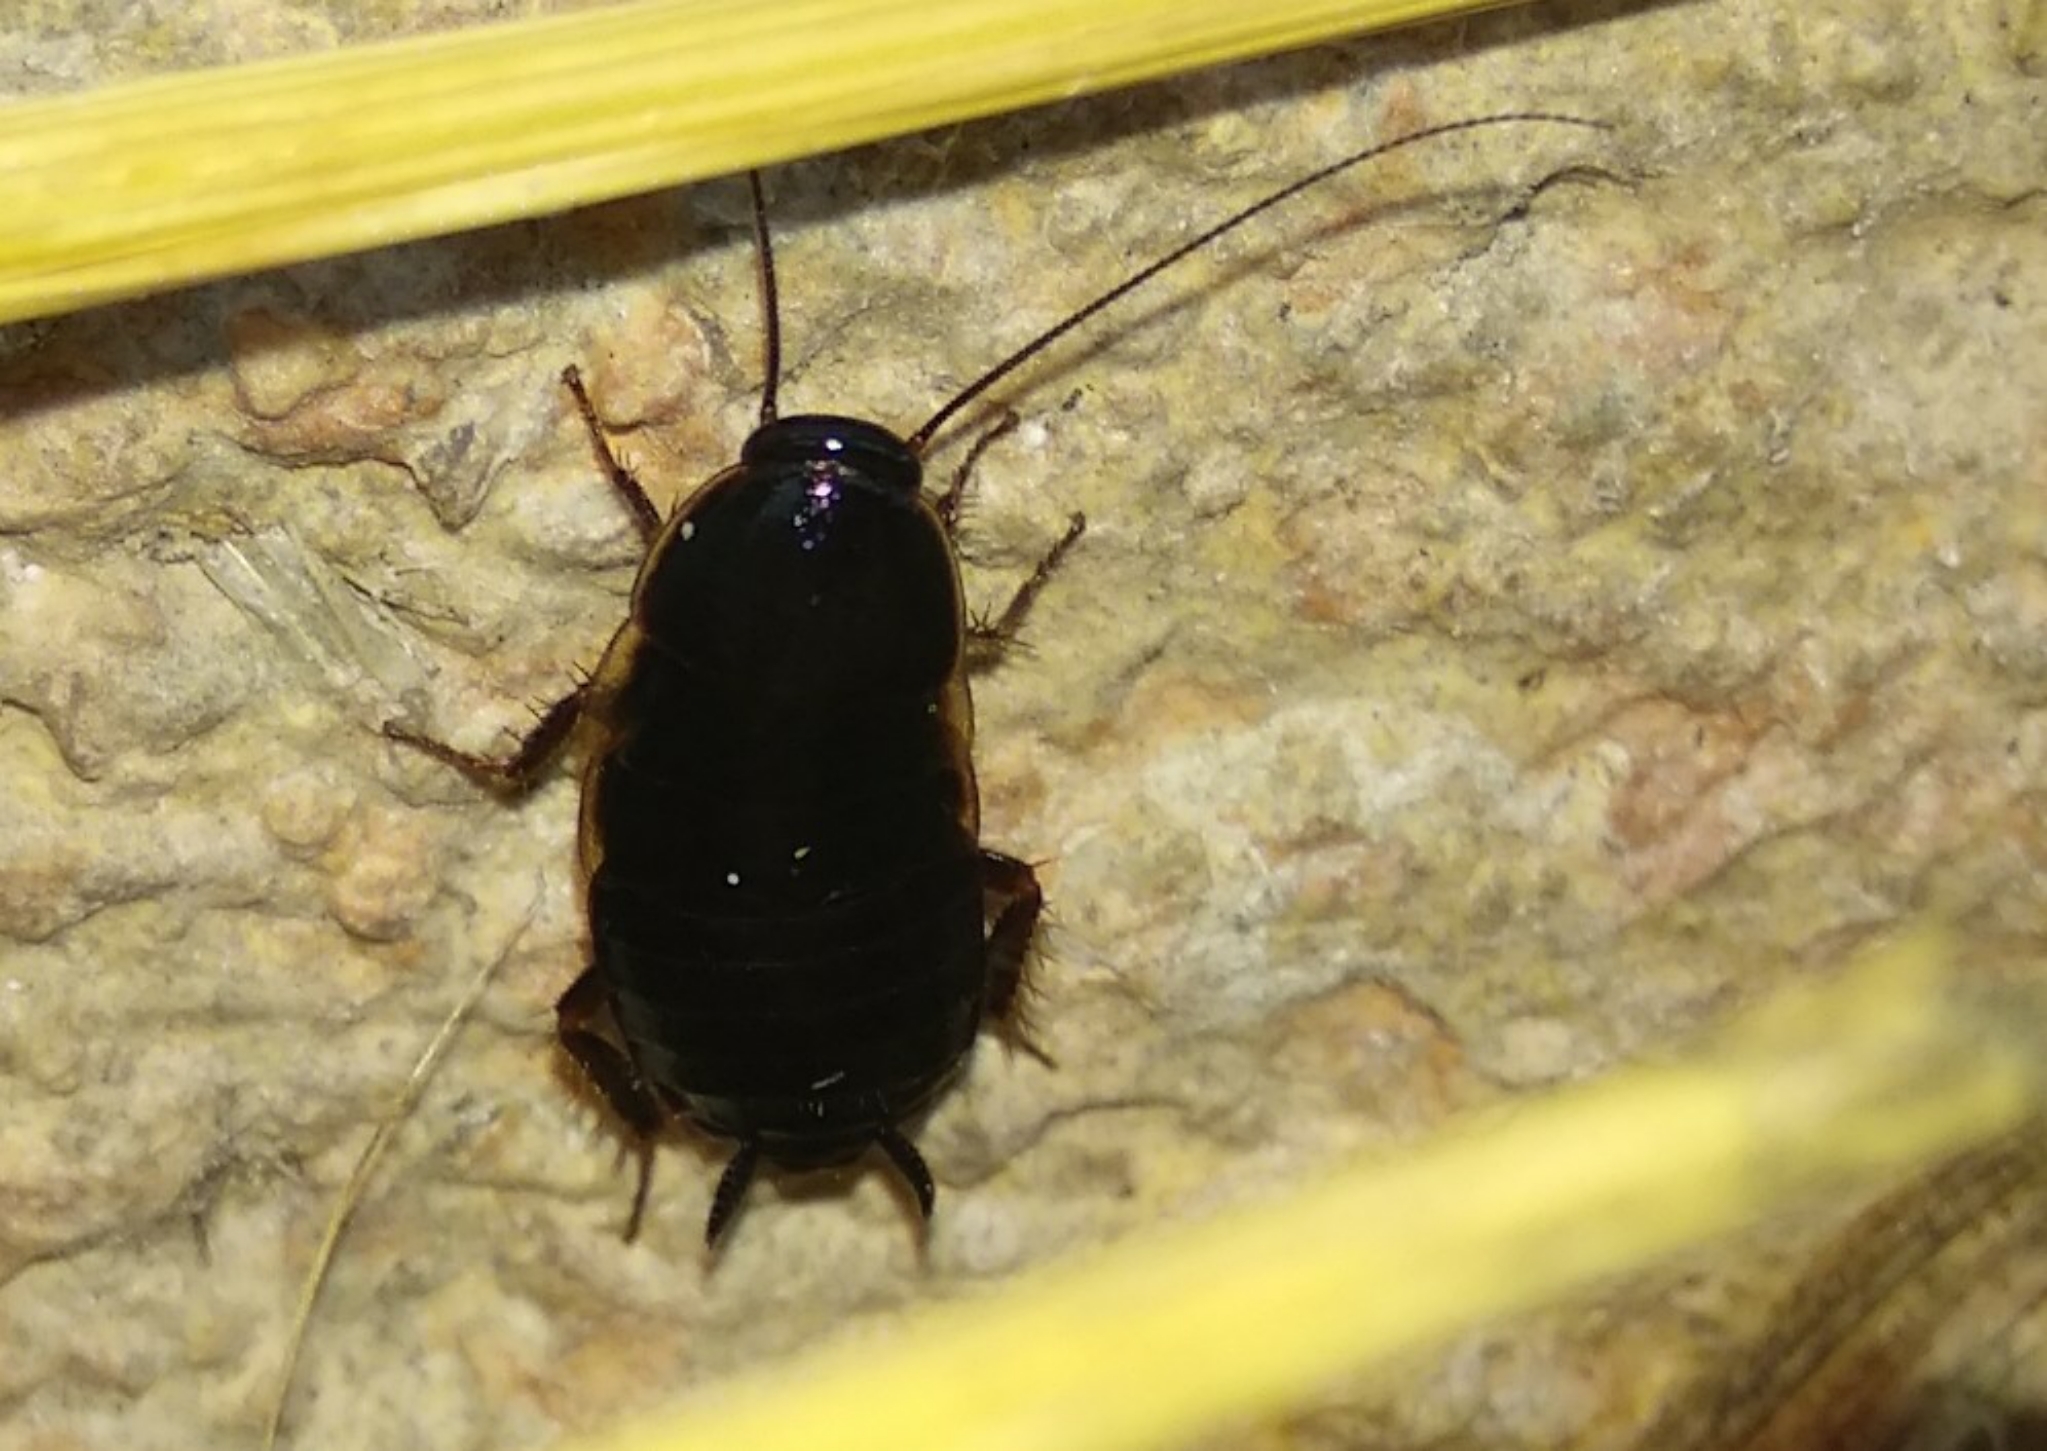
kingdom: Animalia
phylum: Arthropoda
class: Insecta
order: Blattodea
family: Blattidae
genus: Blatta
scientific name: Blatta orientalis
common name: Oriental cockroach
